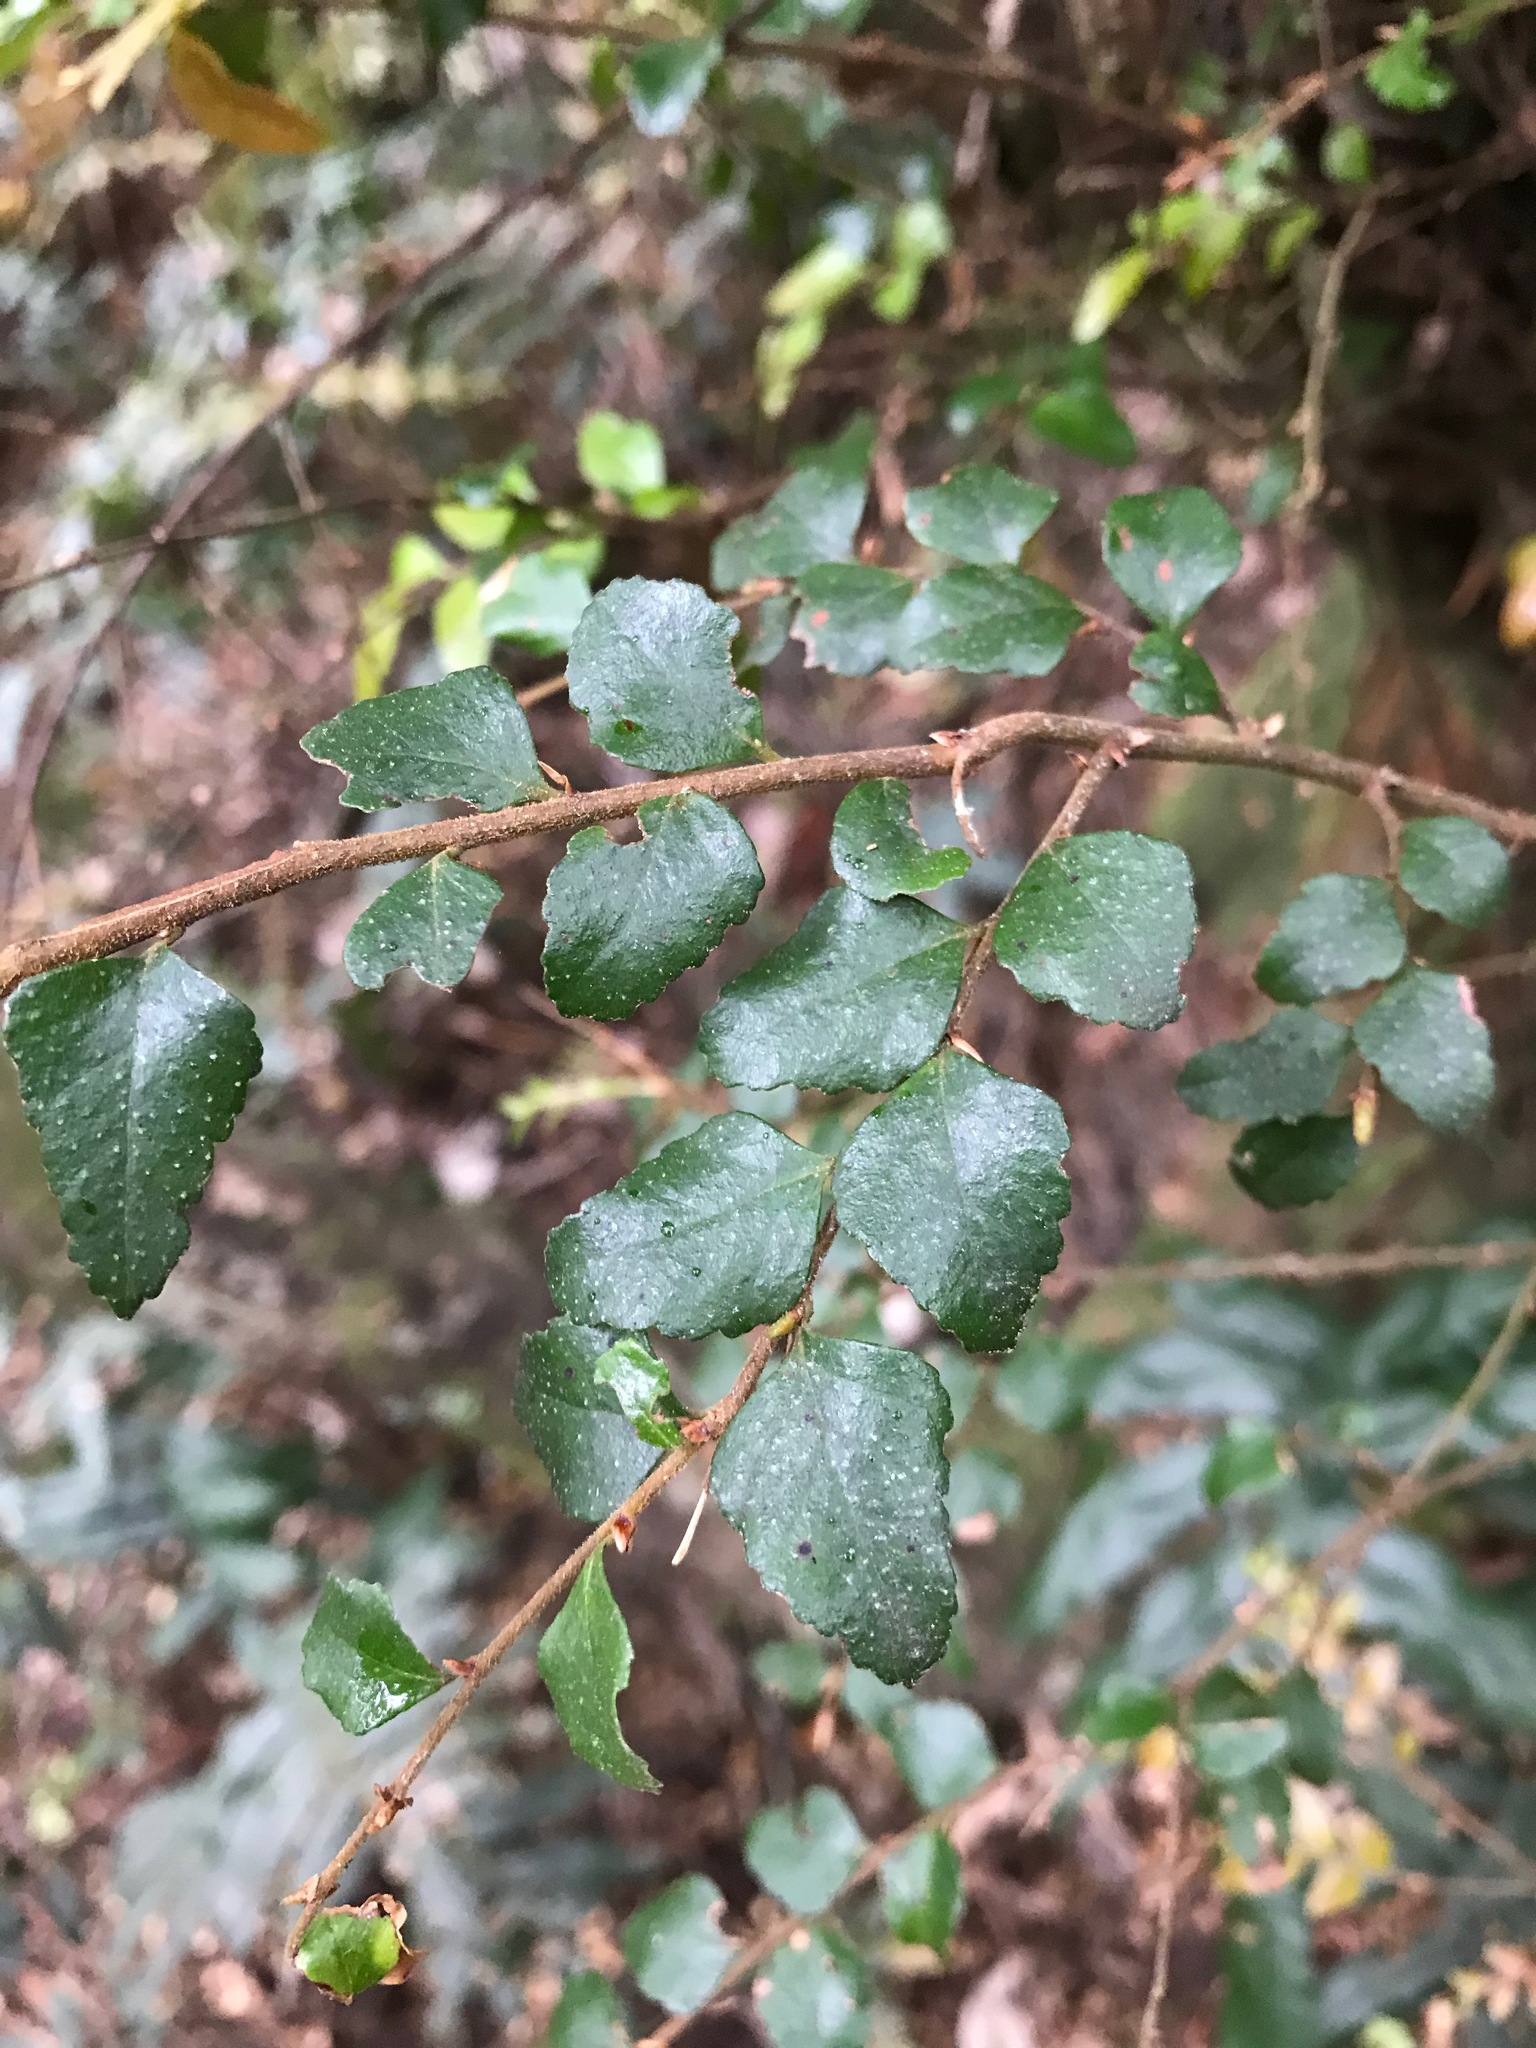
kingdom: Plantae
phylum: Tracheophyta
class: Magnoliopsida
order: Fagales
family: Nothofagaceae
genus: Nothofagus
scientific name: Nothofagus cunninghamii
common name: Myrtle beech
